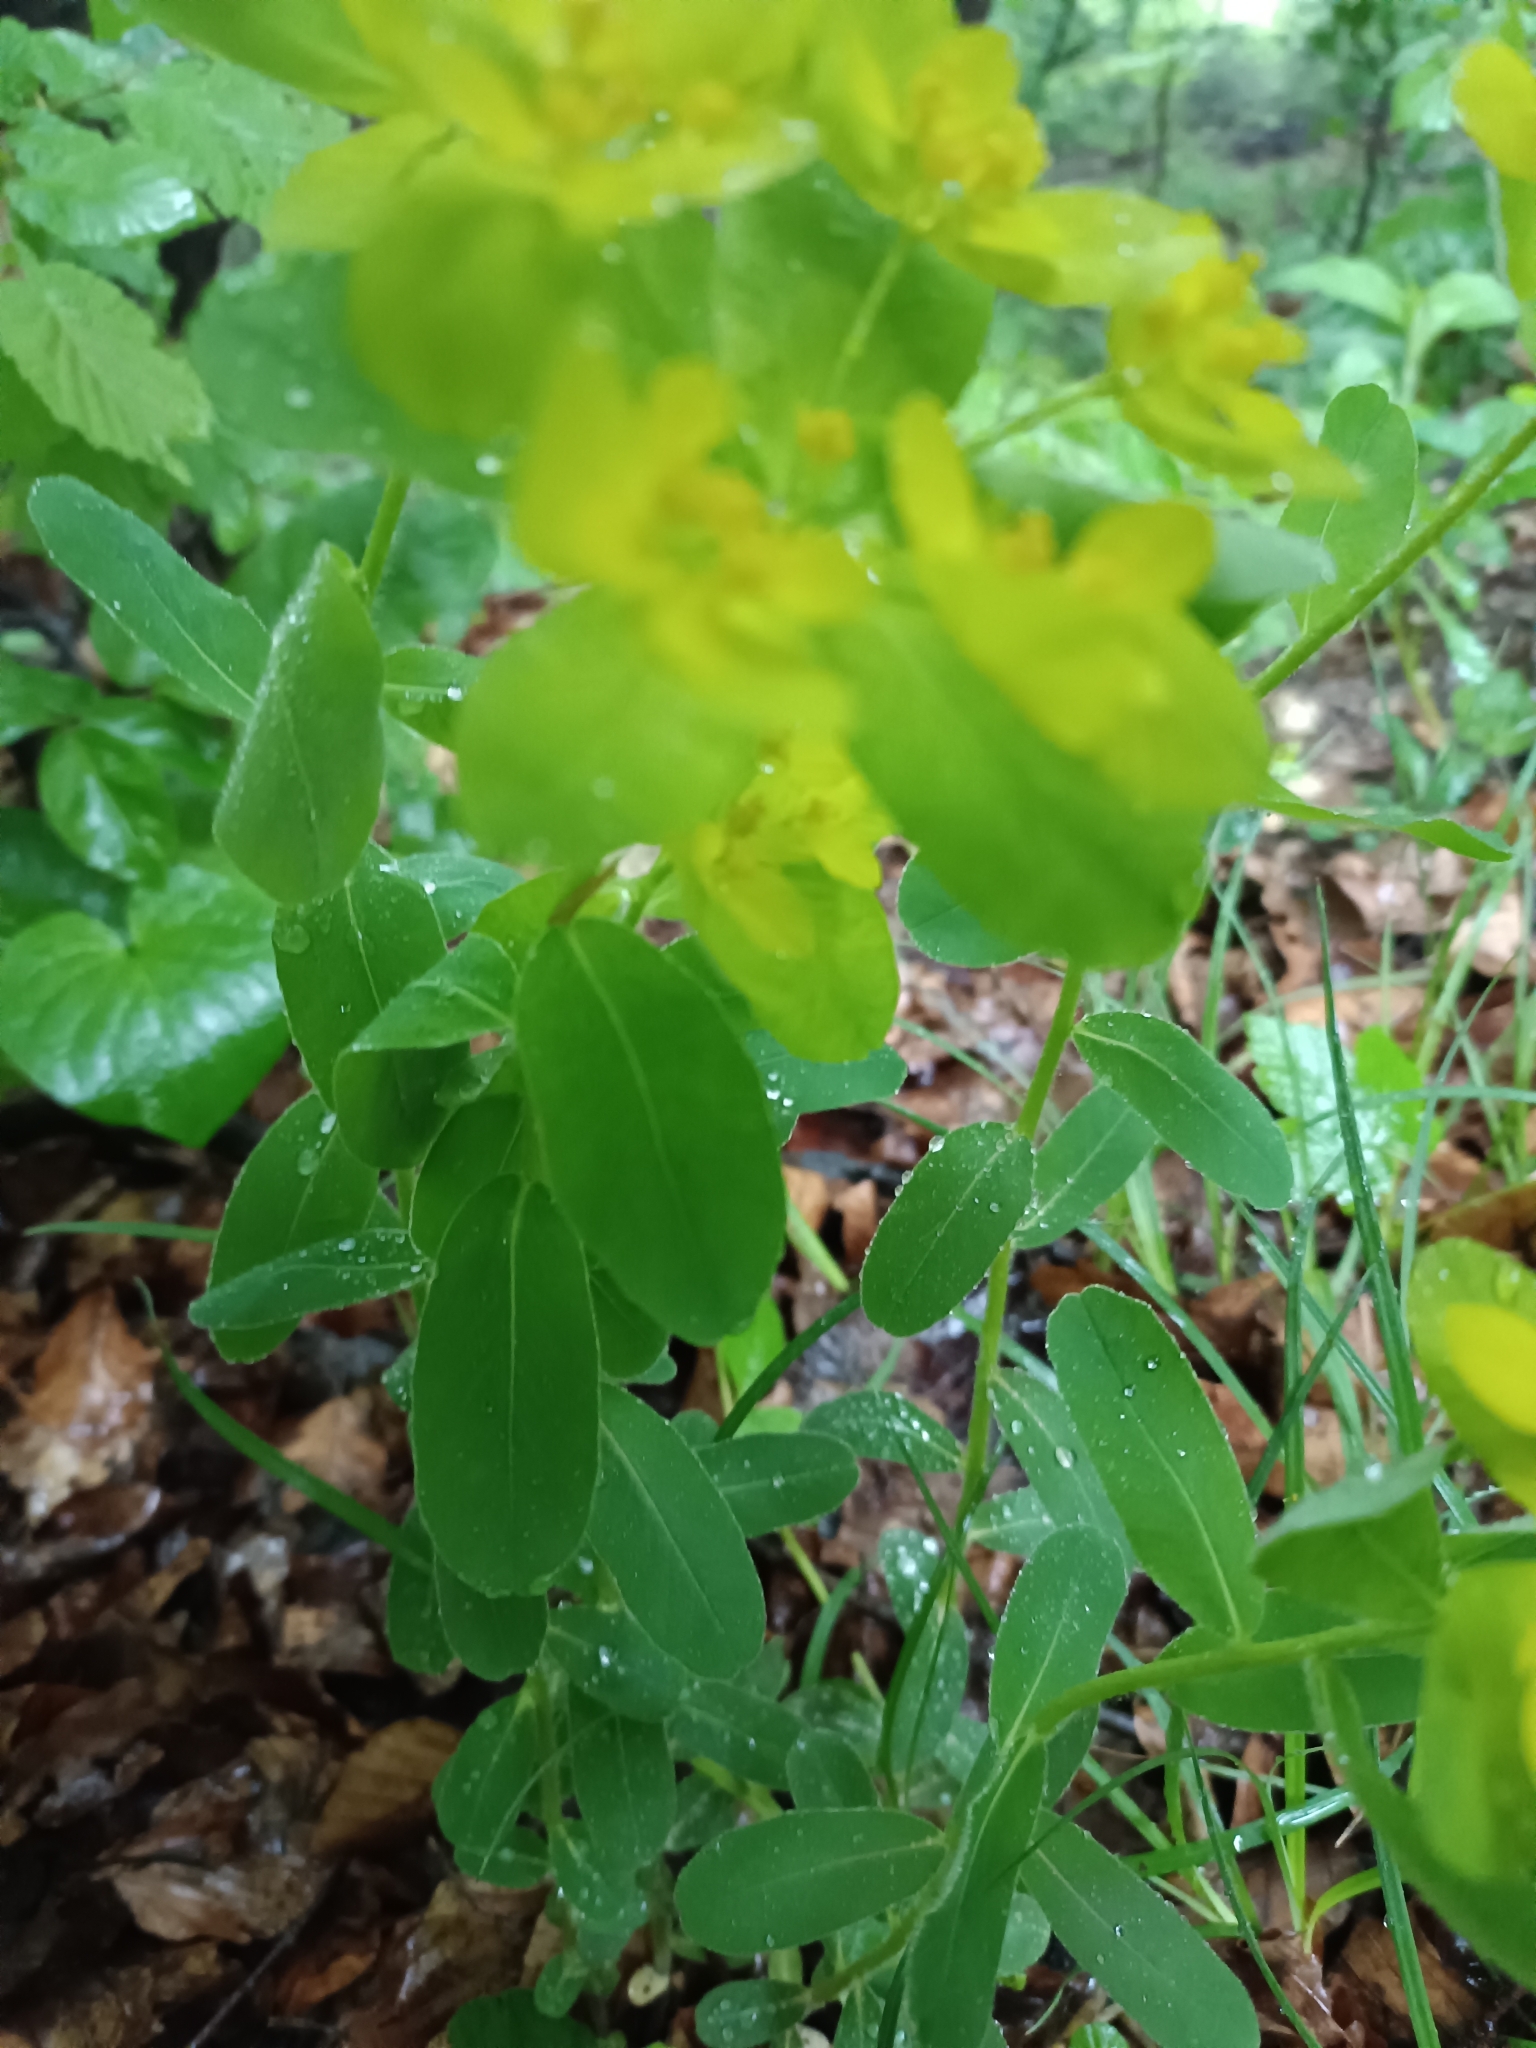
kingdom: Plantae
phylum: Tracheophyta
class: Magnoliopsida
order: Malpighiales
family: Euphorbiaceae
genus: Euphorbia
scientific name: Euphorbia epithymoides
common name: Cushion spurge
